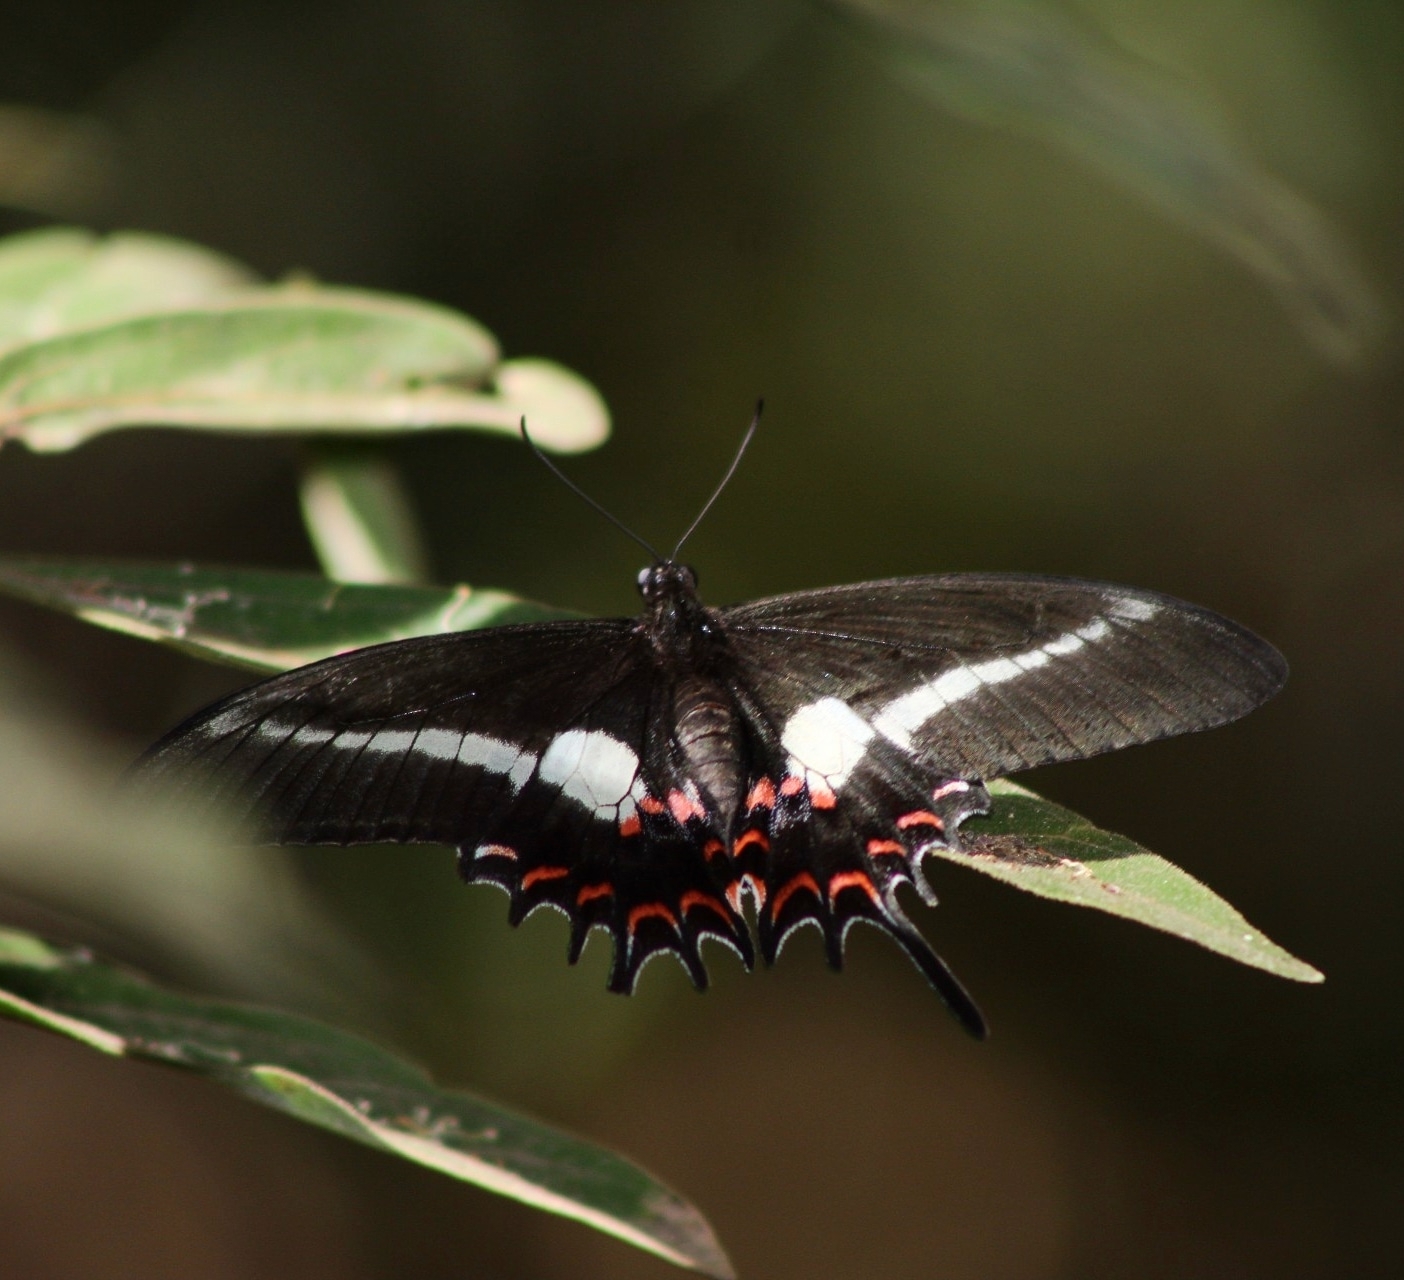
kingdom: Animalia
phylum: Arthropoda
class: Insecta
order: Lepidoptera
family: Papilionidae
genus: Heraclides
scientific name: Heraclides hectorides
